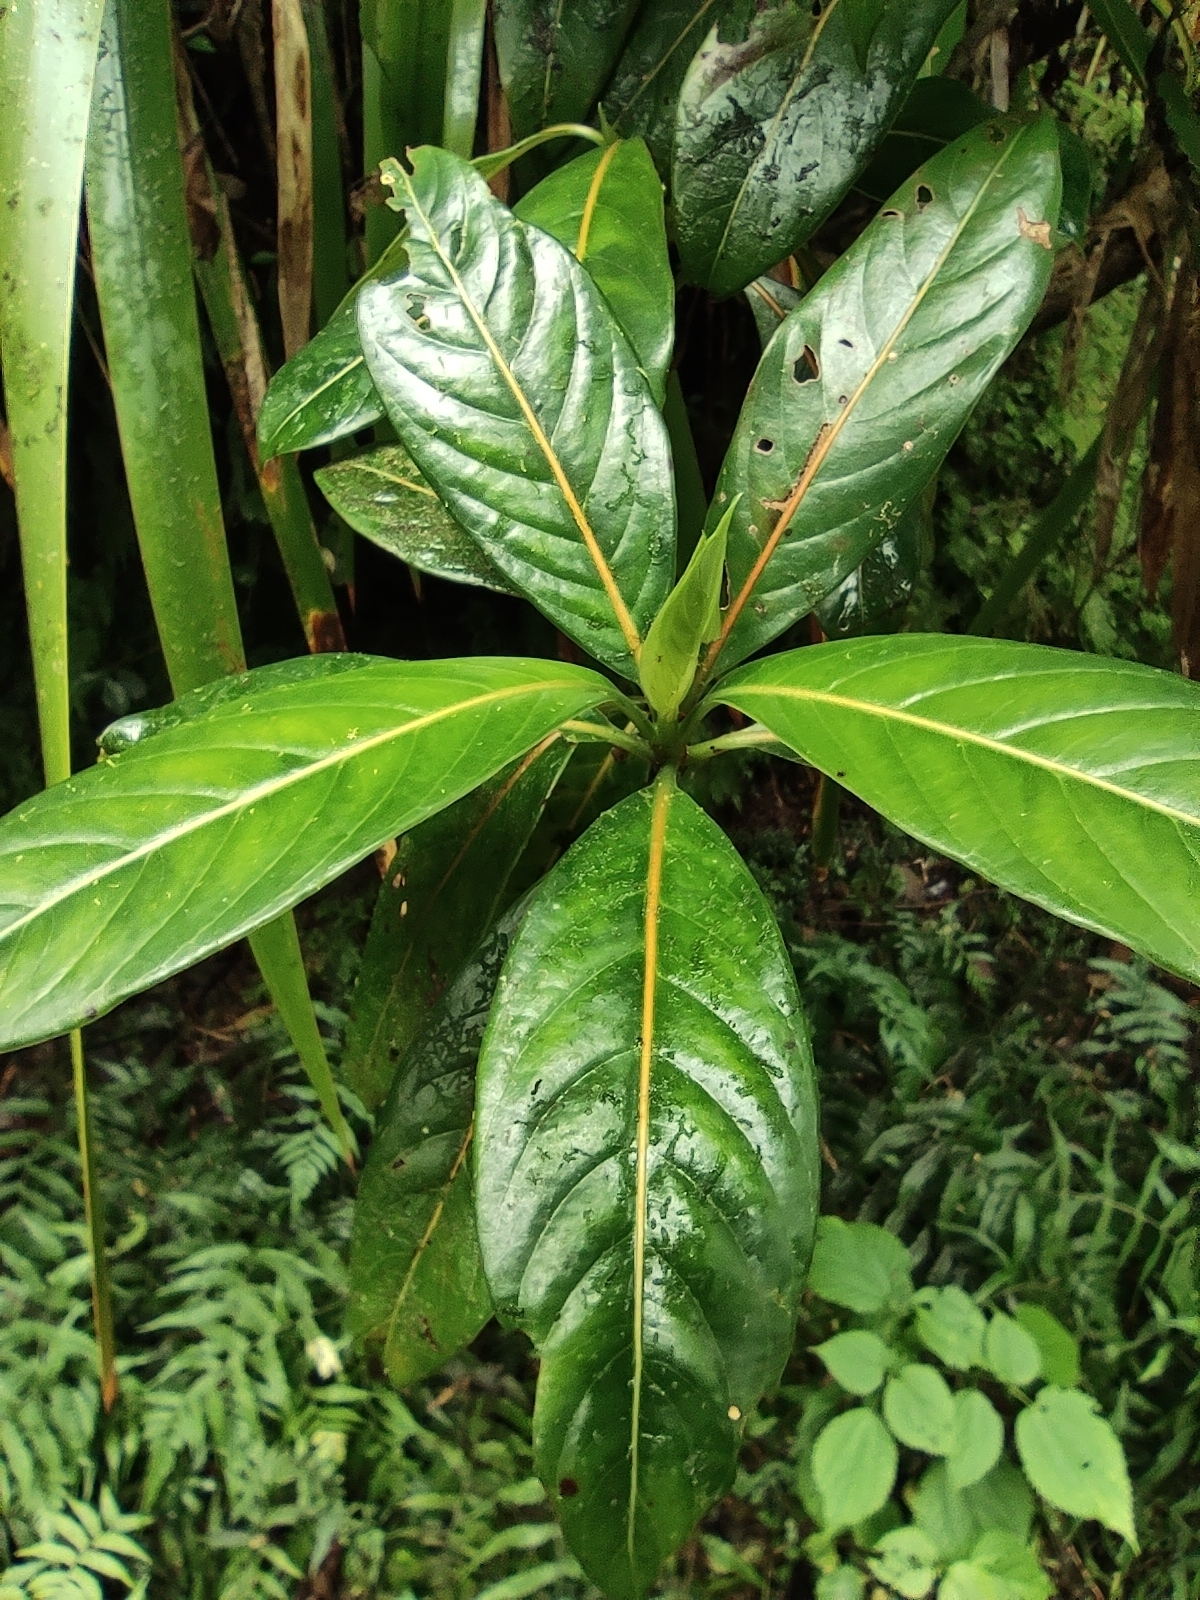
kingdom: Plantae
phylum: Tracheophyta
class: Magnoliopsida
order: Gentianales
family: Rubiaceae
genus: Gaertnera
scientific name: Gaertnera vaginata
